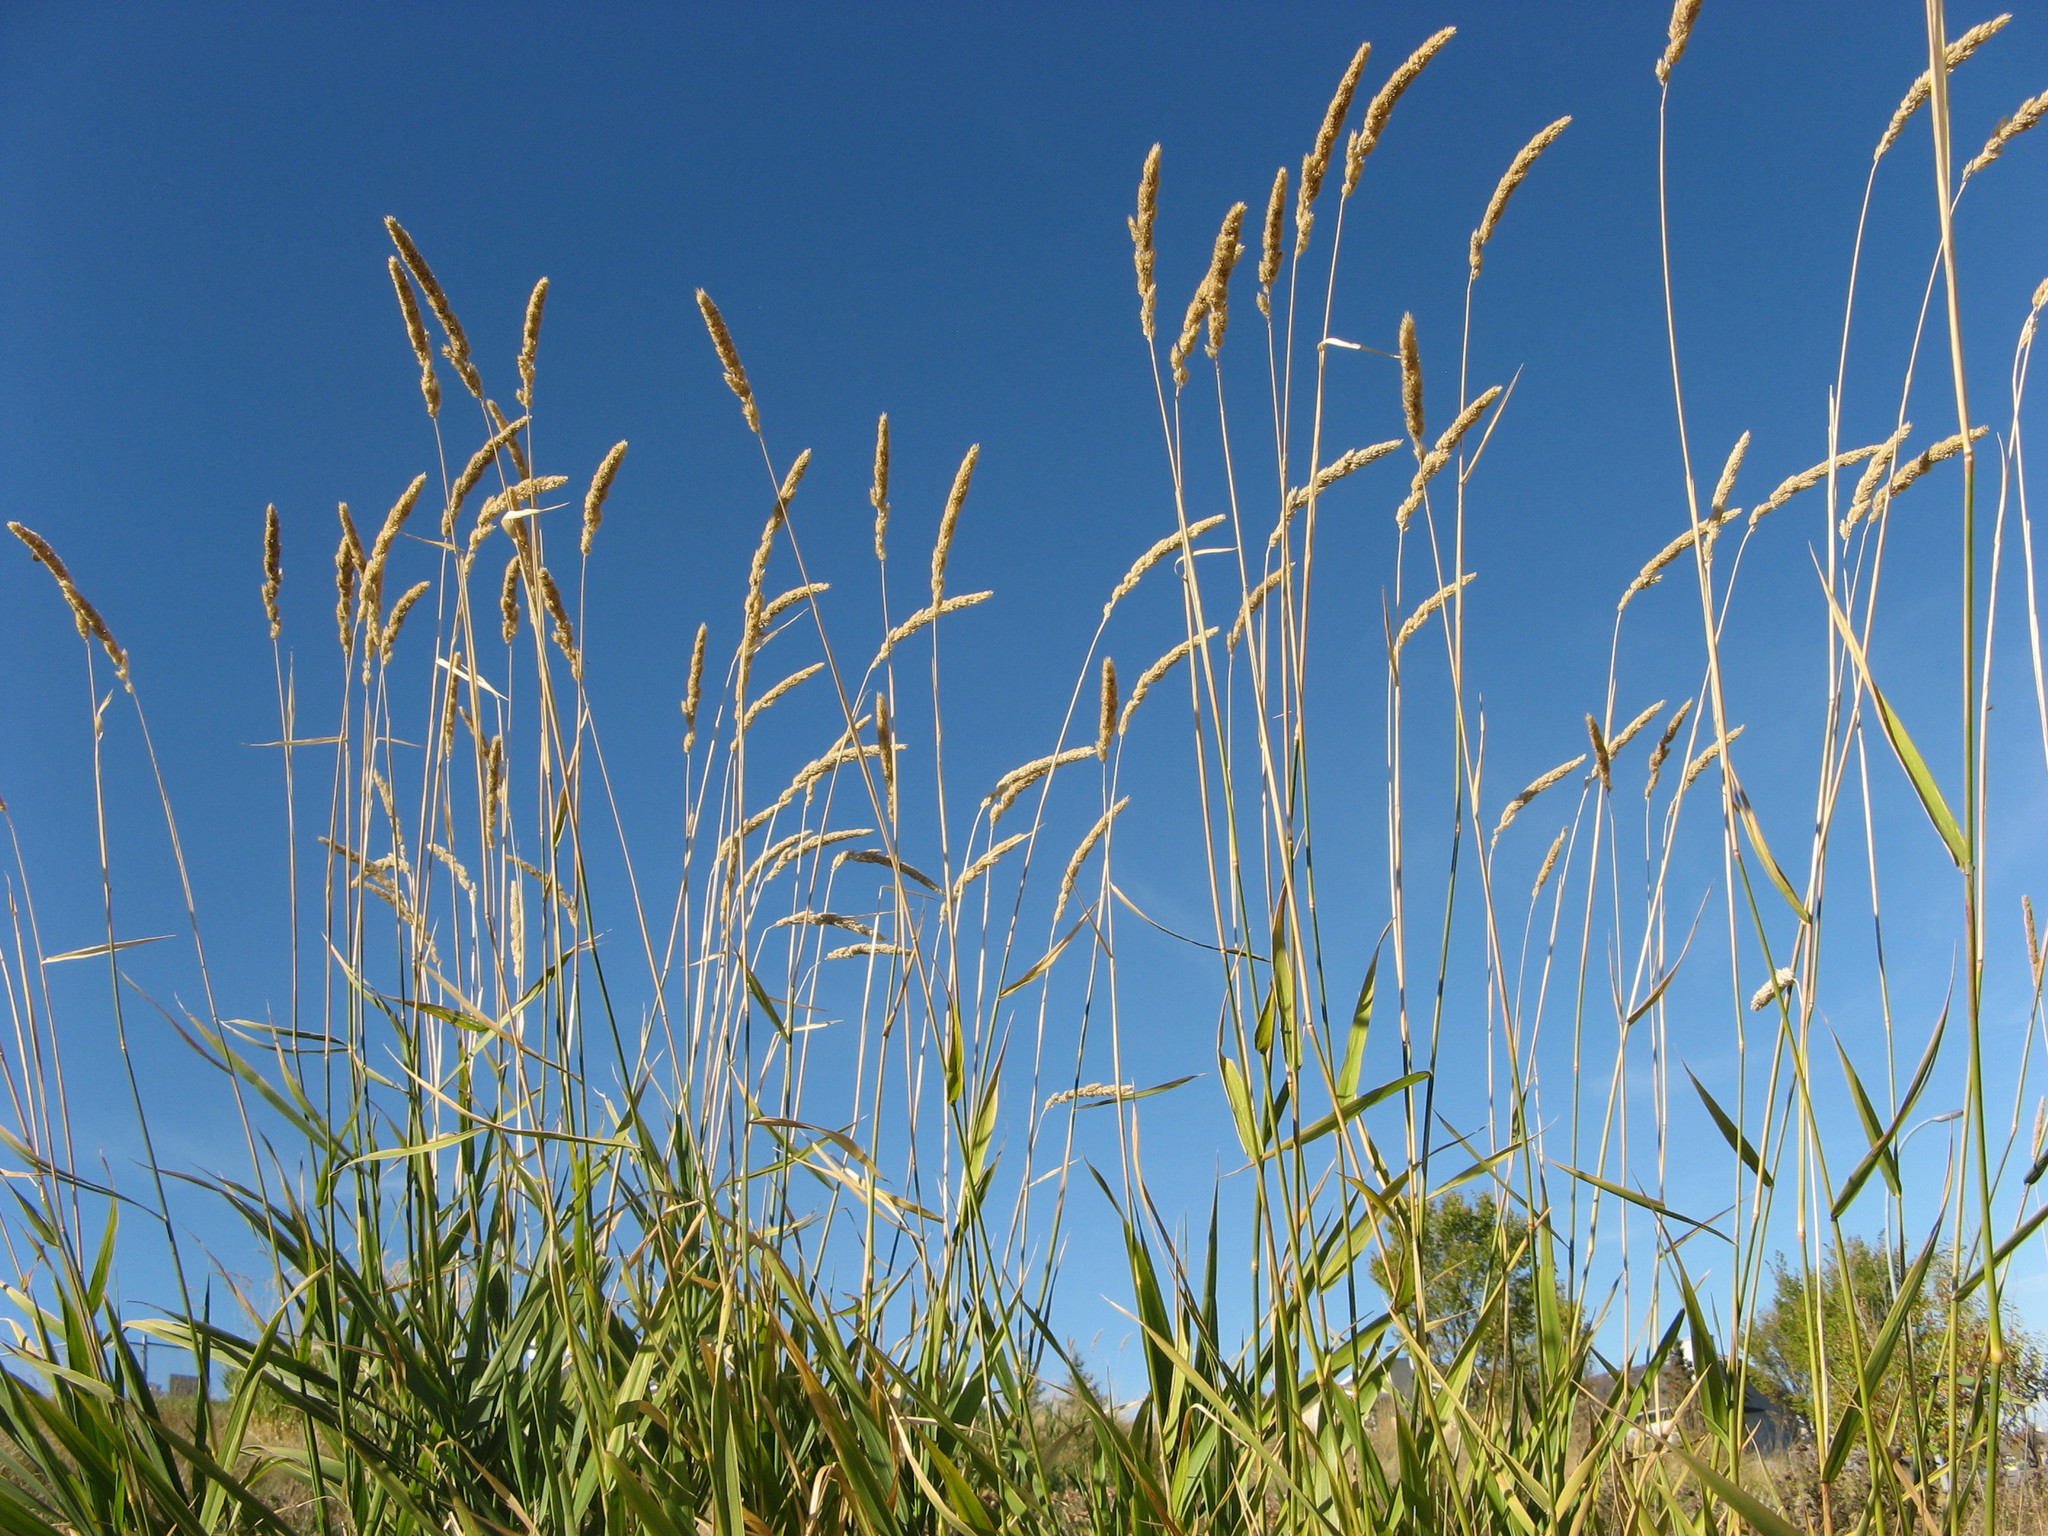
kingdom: Plantae
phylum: Tracheophyta
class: Liliopsida
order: Poales
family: Poaceae
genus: Phalaris
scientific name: Phalaris arundinacea
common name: Reed canary-grass
